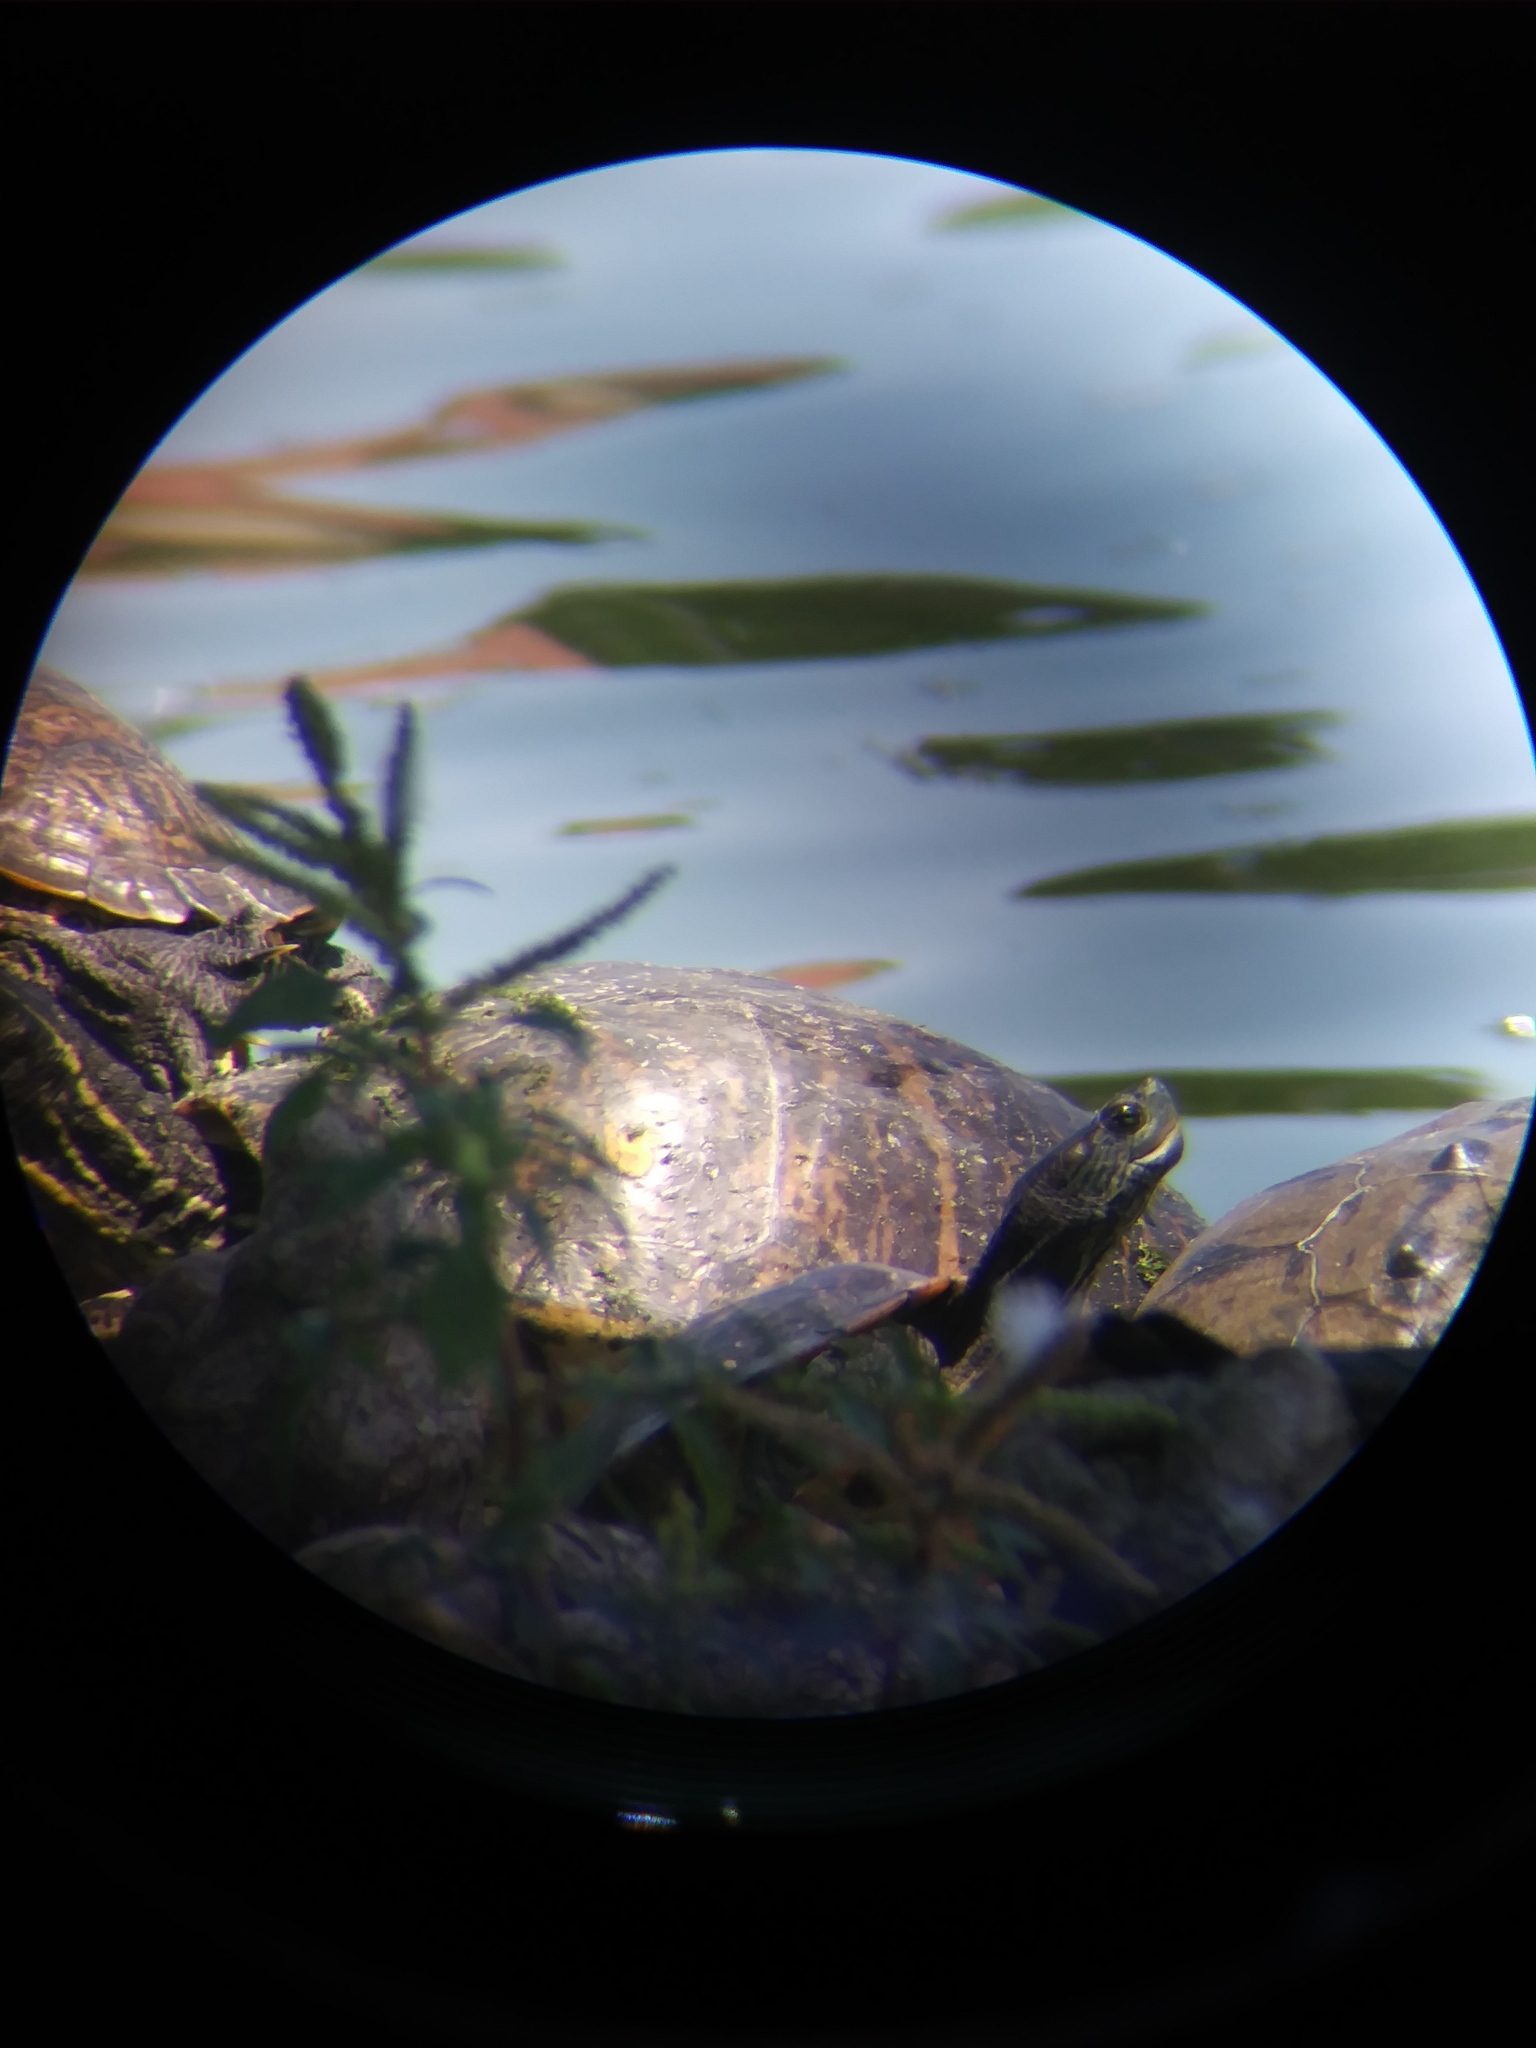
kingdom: Animalia
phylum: Chordata
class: Testudines
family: Emydidae
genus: Trachemys
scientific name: Trachemys scripta
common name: Slider
